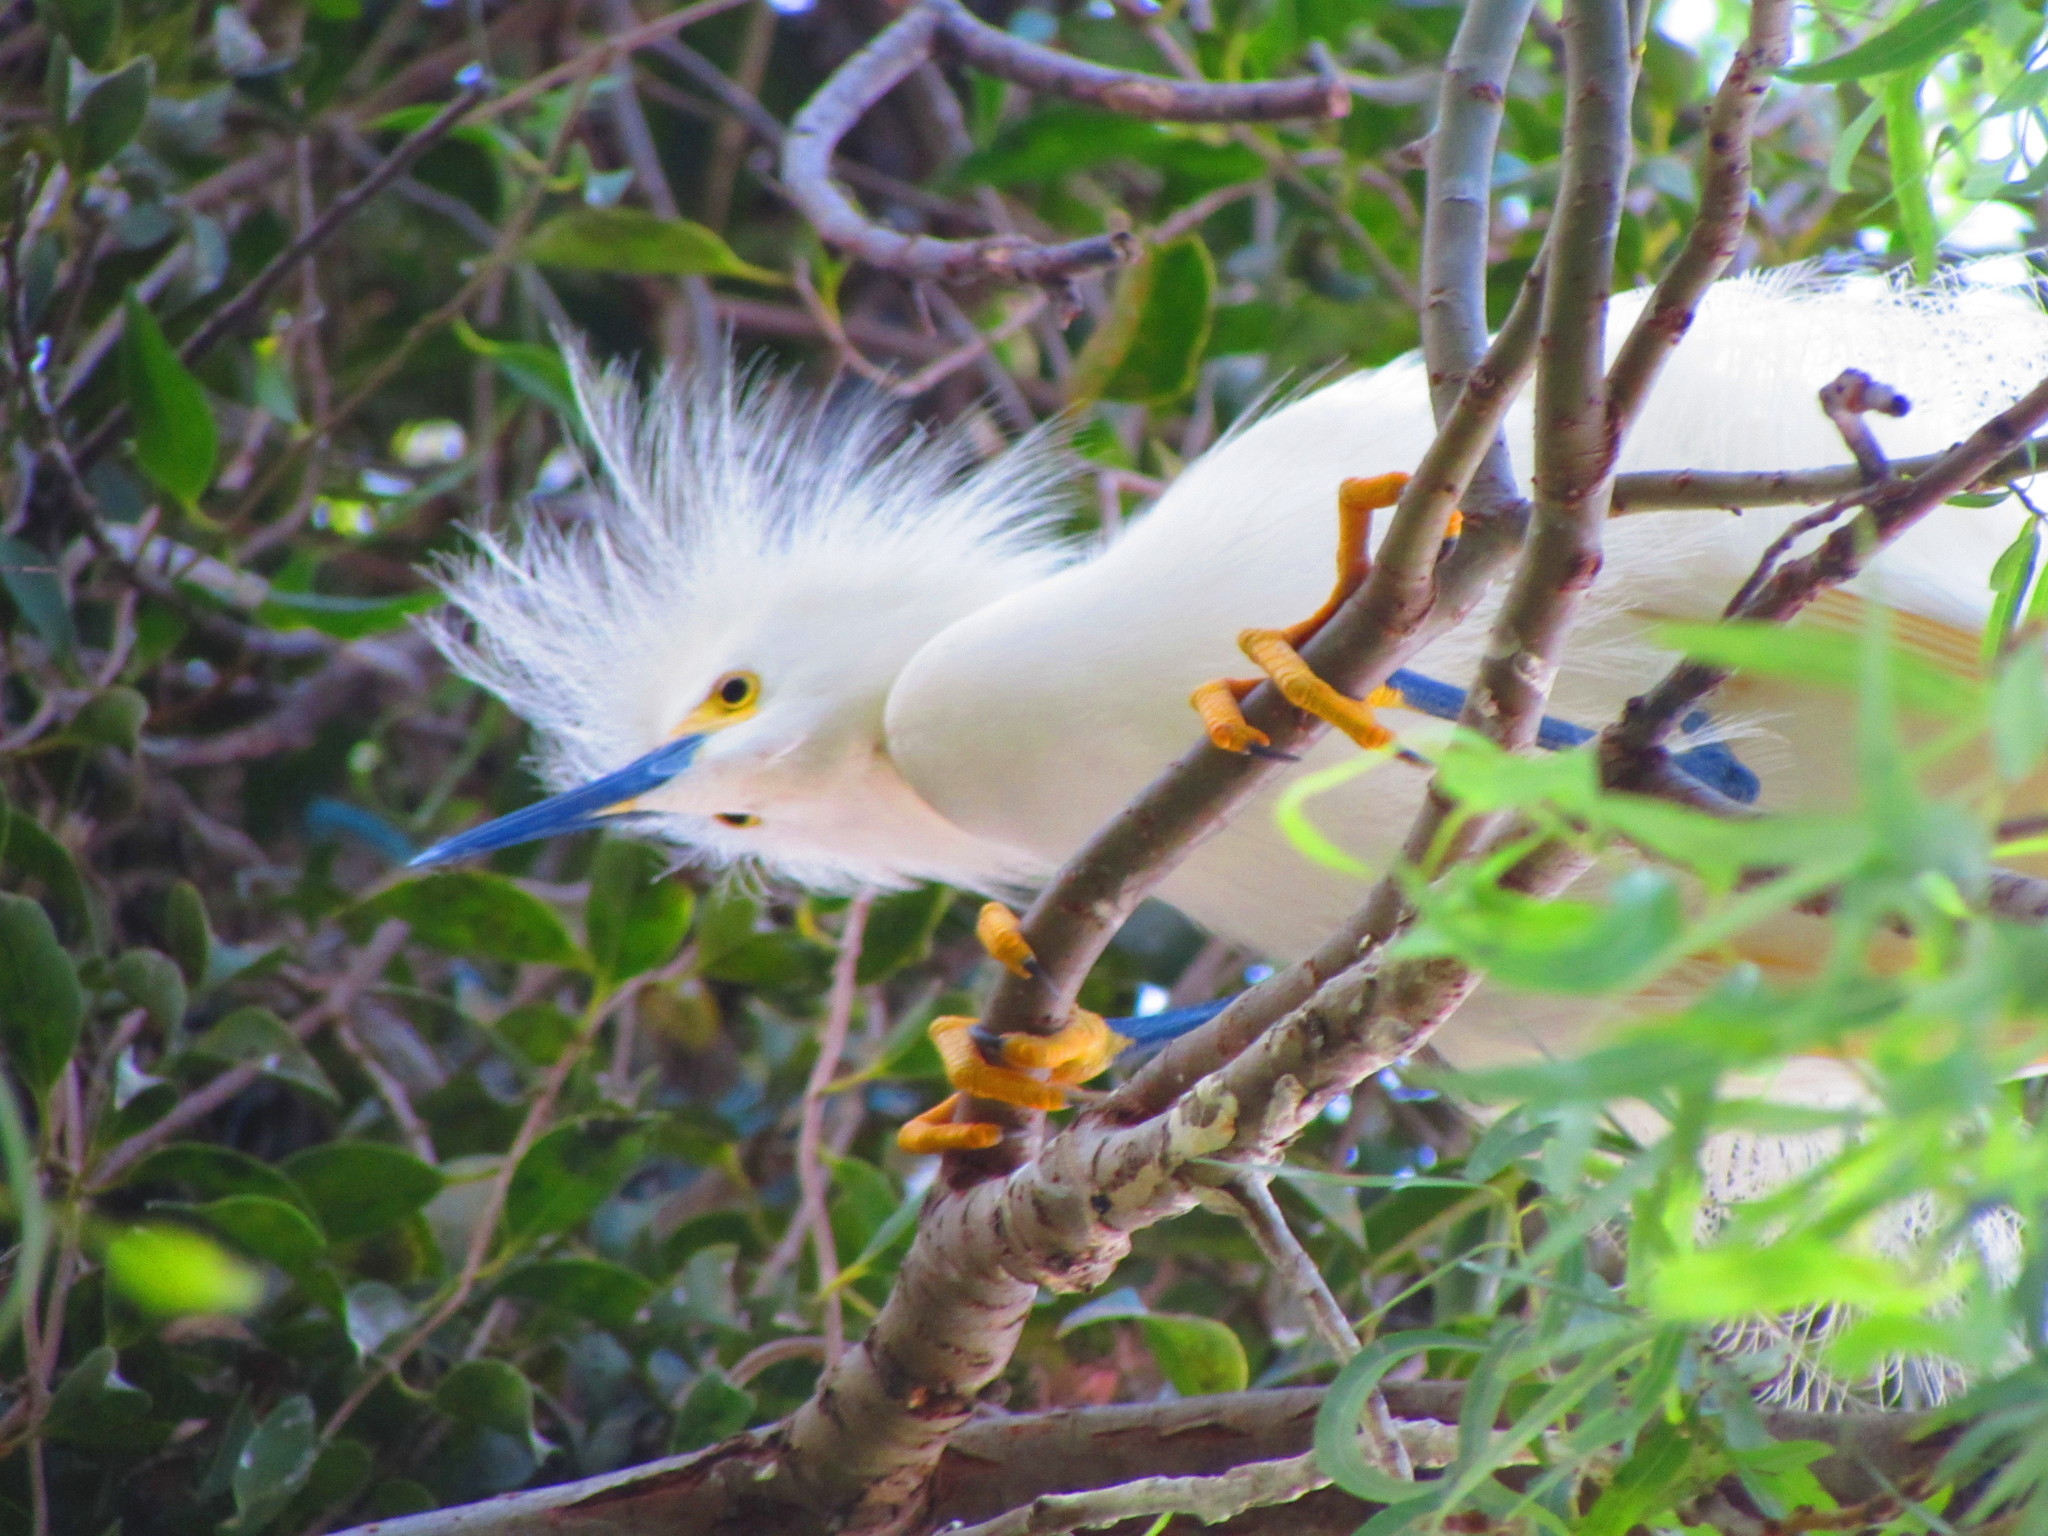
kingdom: Animalia
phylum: Chordata
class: Aves
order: Pelecaniformes
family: Ardeidae
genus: Egretta
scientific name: Egretta thula
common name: Snowy egret
